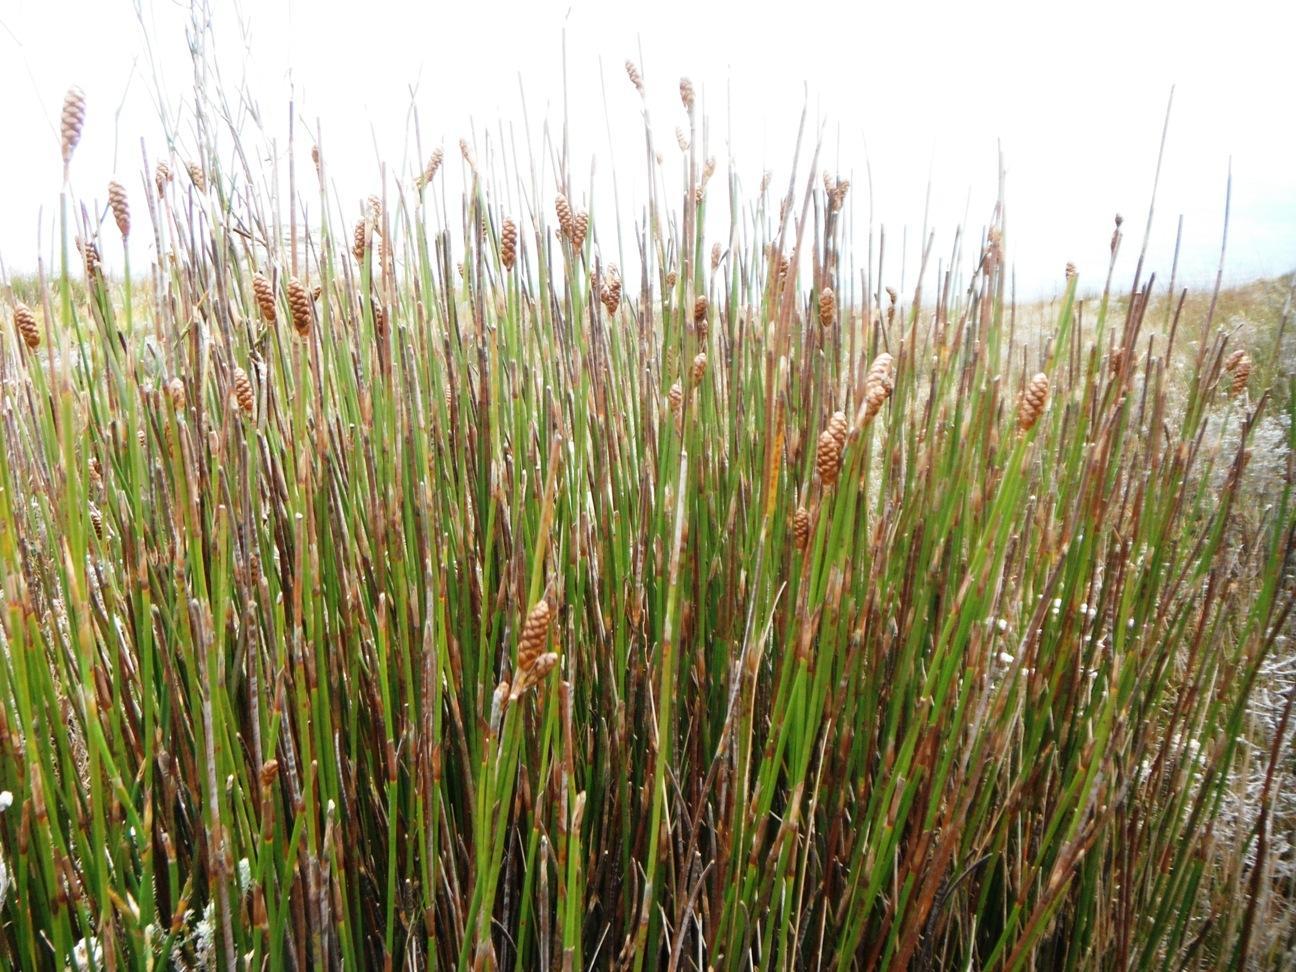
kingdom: Plantae
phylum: Tracheophyta
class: Liliopsida
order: Poales
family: Restionaceae
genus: Nevillea
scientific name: Nevillea obtusissimus
